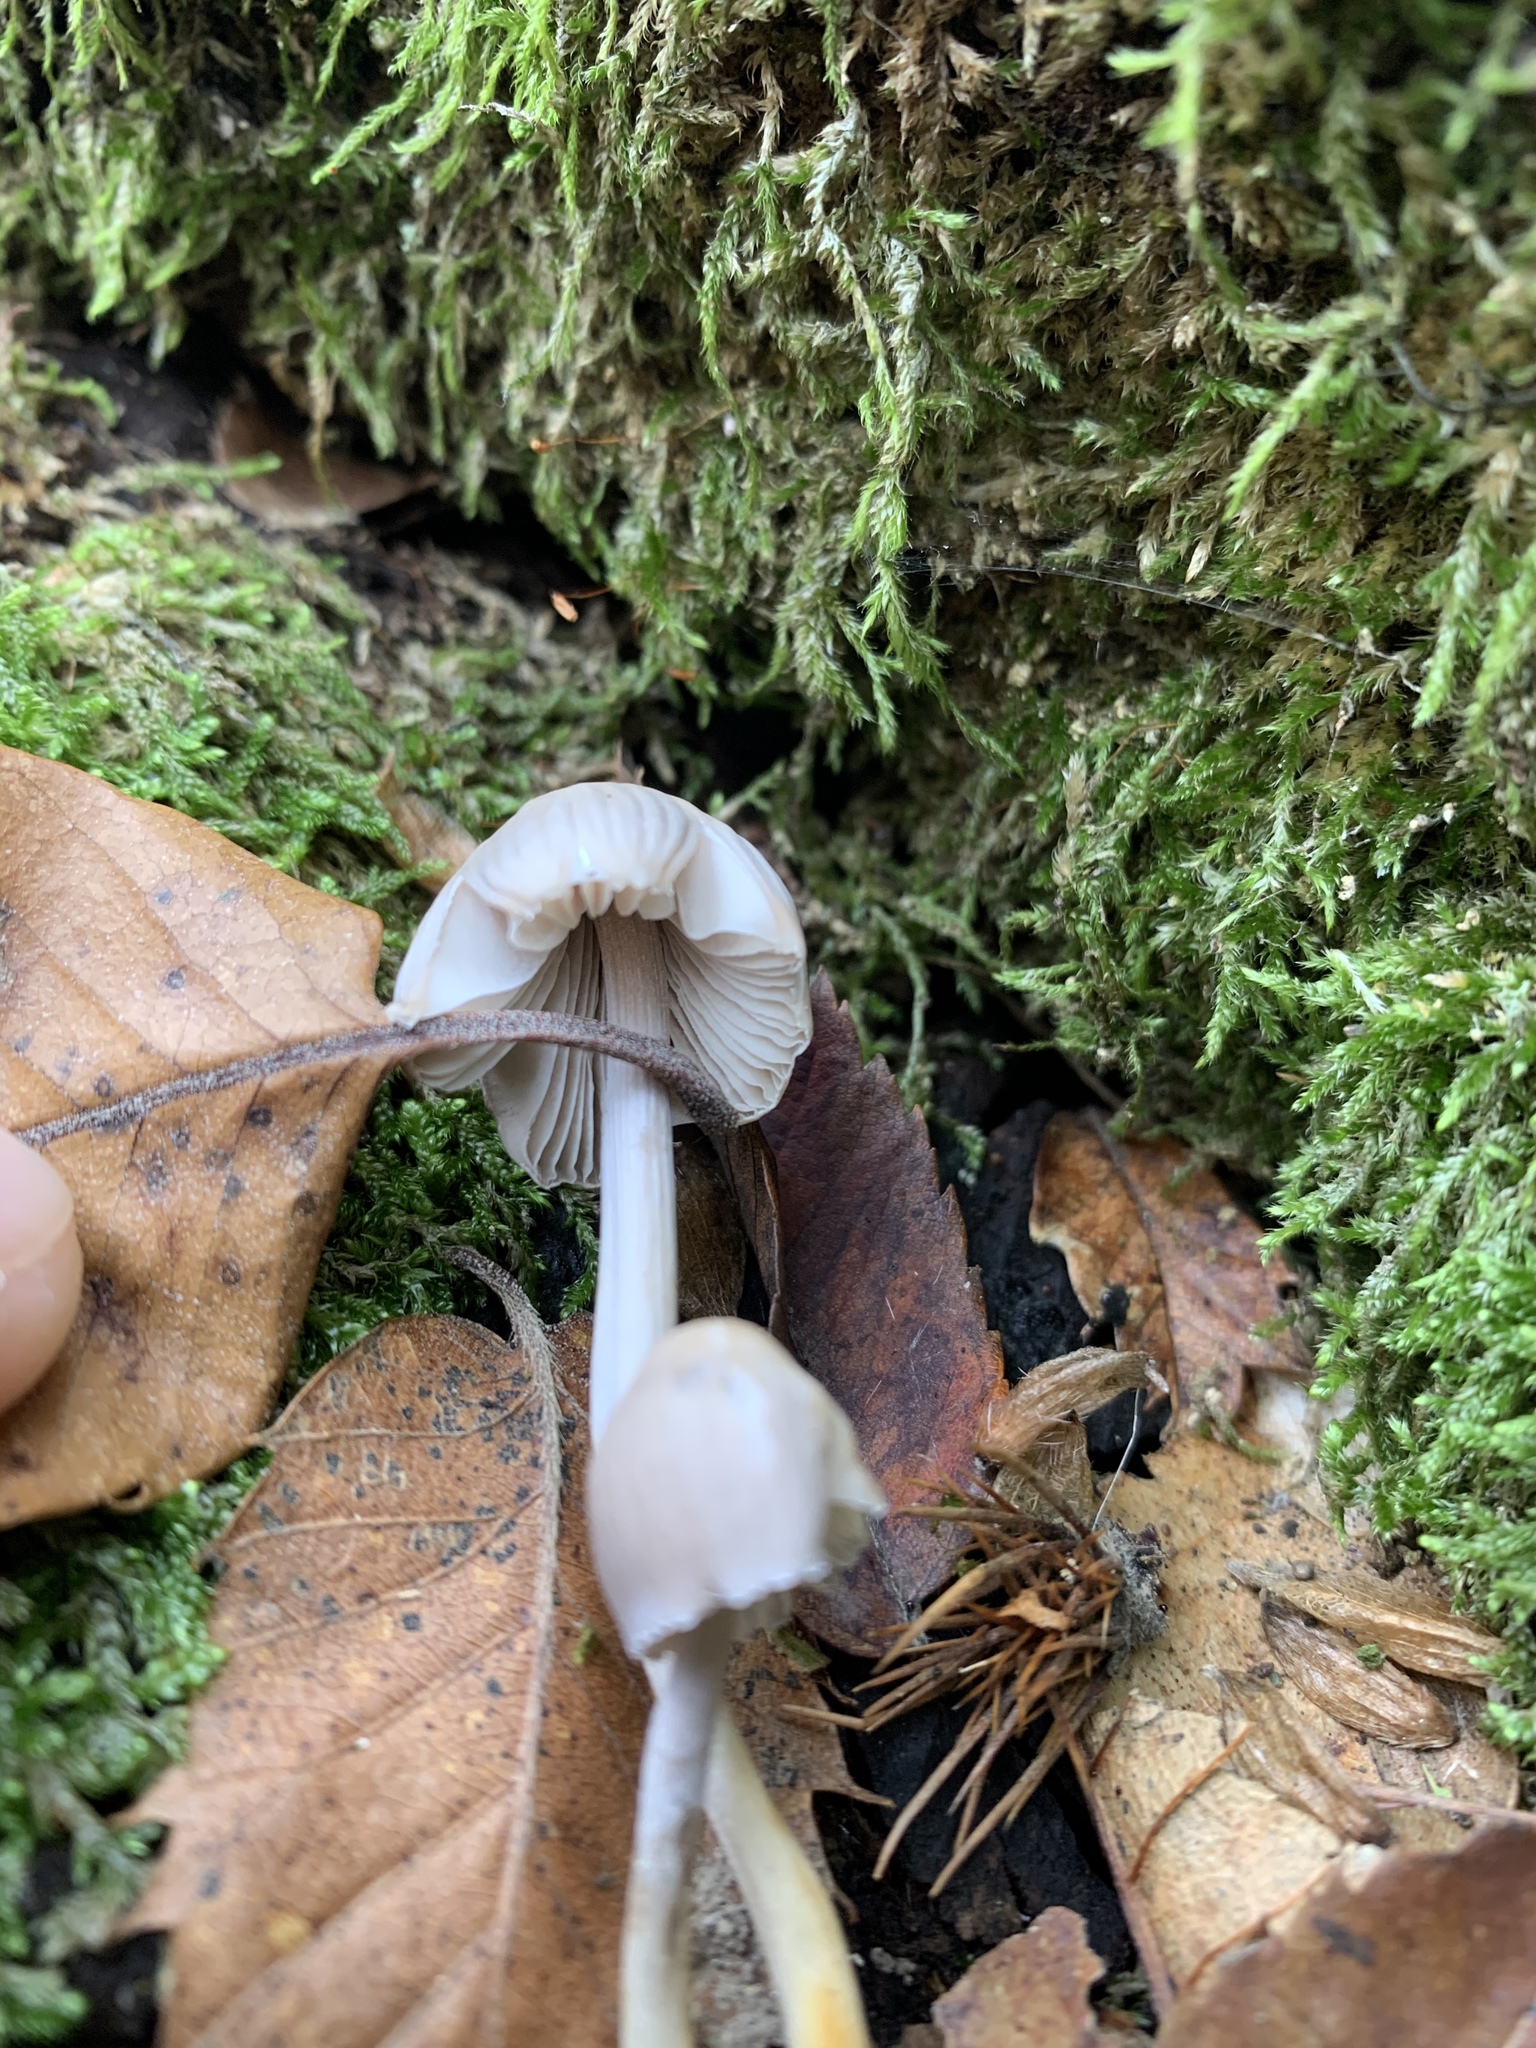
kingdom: Fungi
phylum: Basidiomycota
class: Agaricomycetes
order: Agaricales
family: Mycenaceae
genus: Mycena
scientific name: Mycena galericulata
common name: Bonnet mycena
